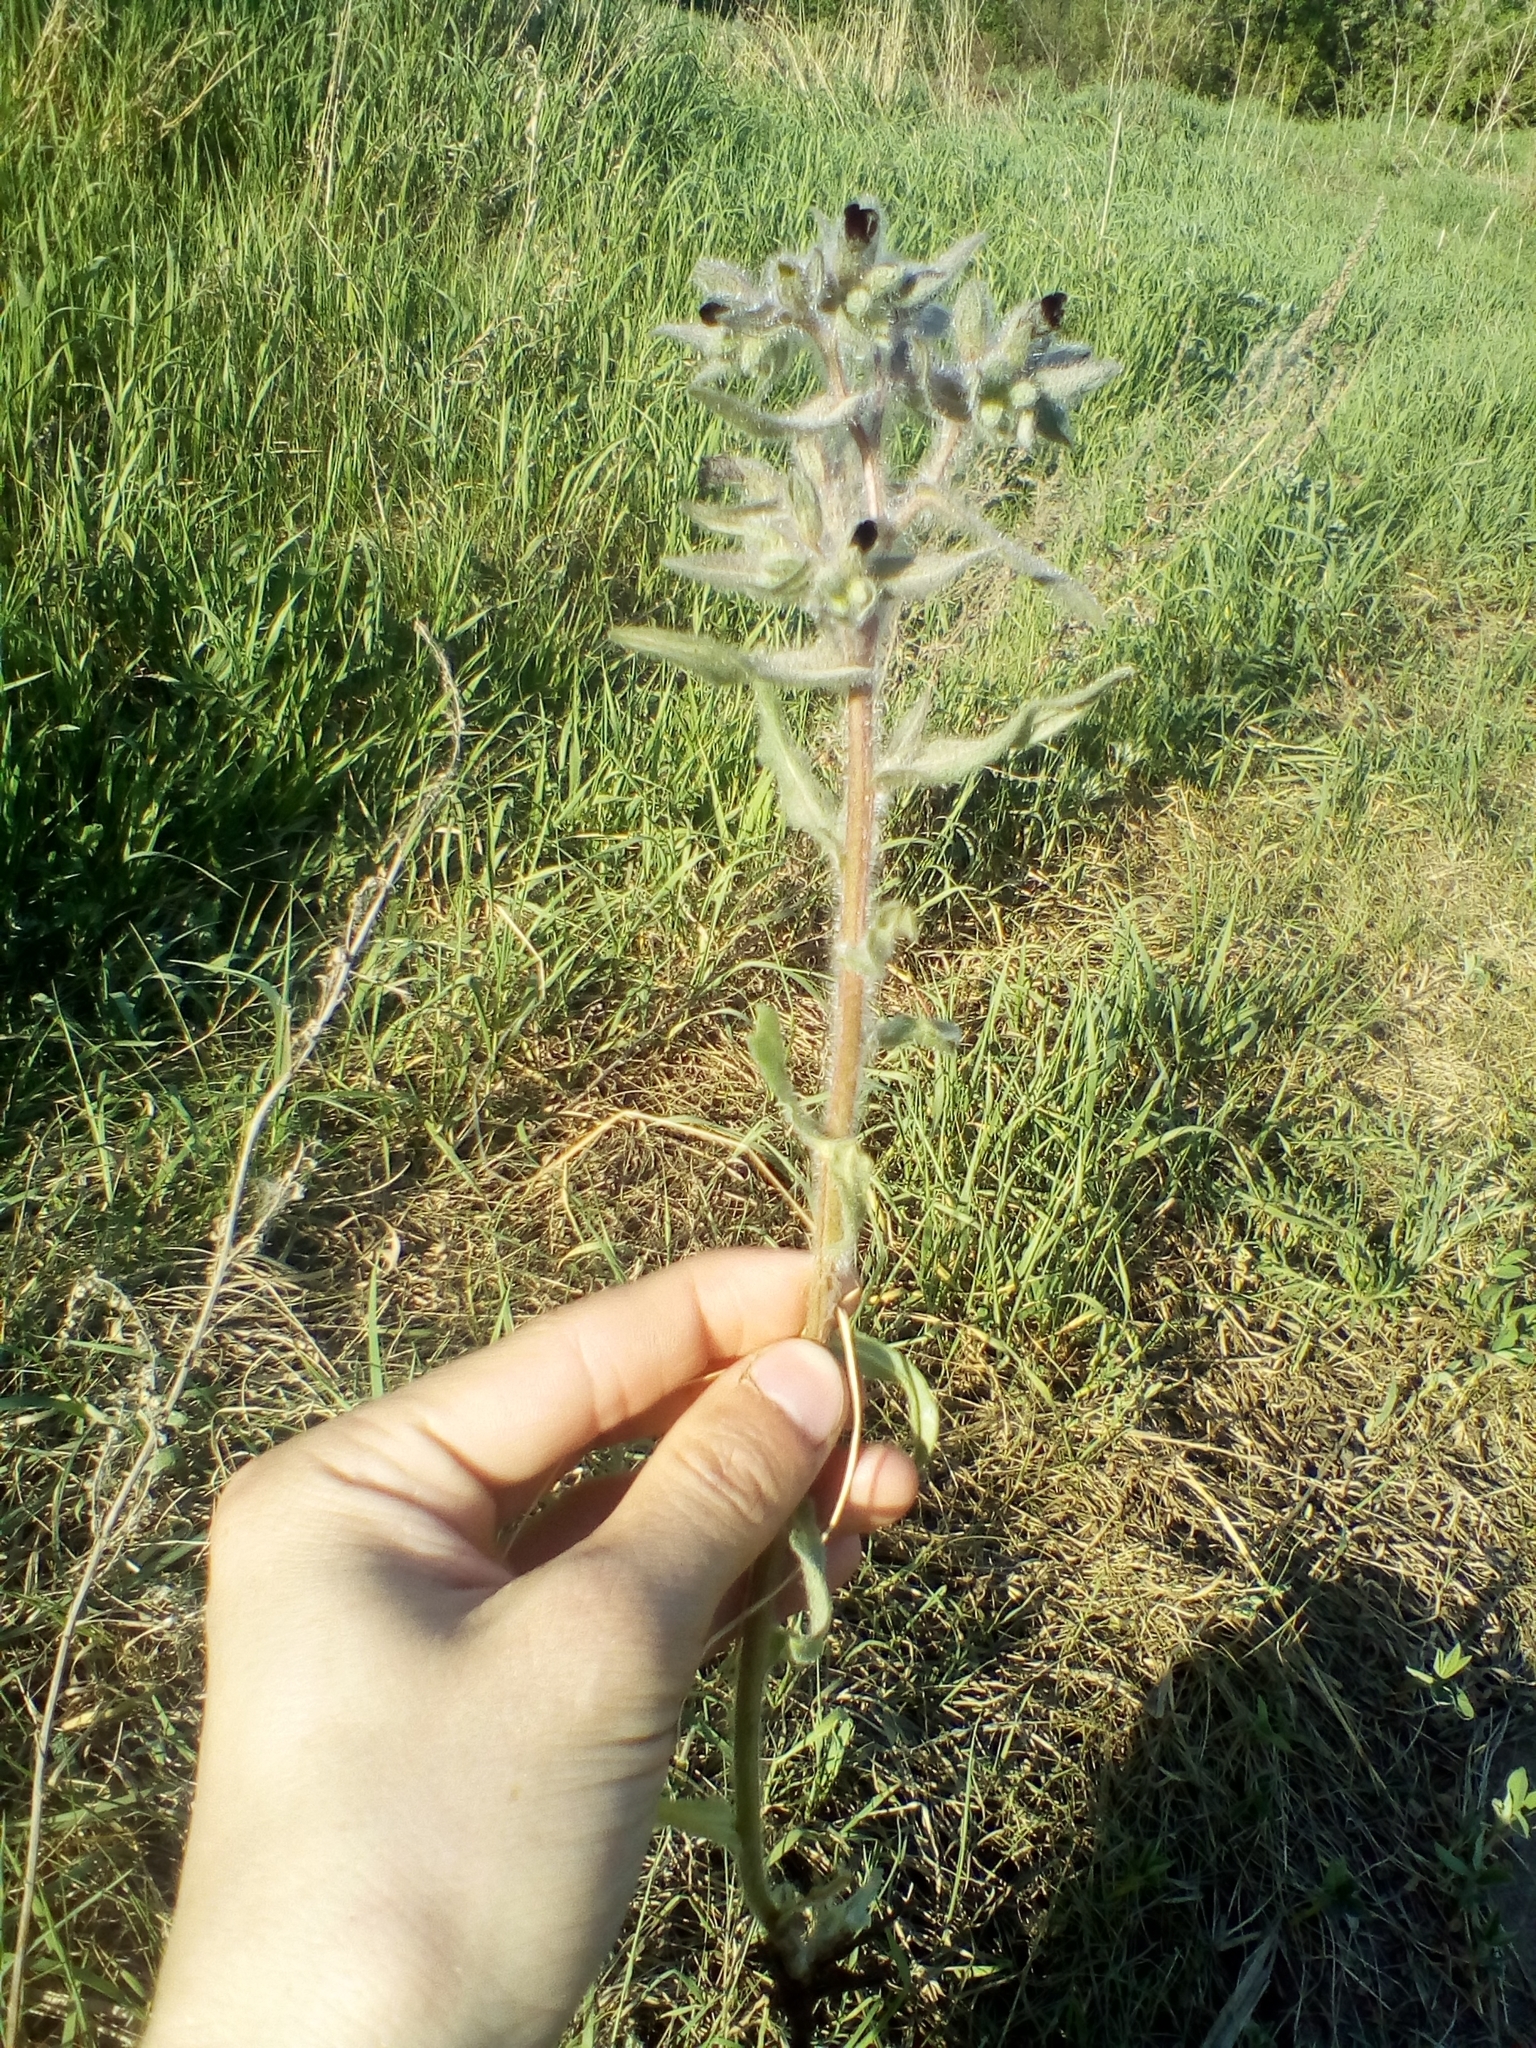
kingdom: Plantae
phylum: Tracheophyta
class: Magnoliopsida
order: Boraginales
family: Boraginaceae
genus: Nonea
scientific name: Nonea pulla
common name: Brown nonea
